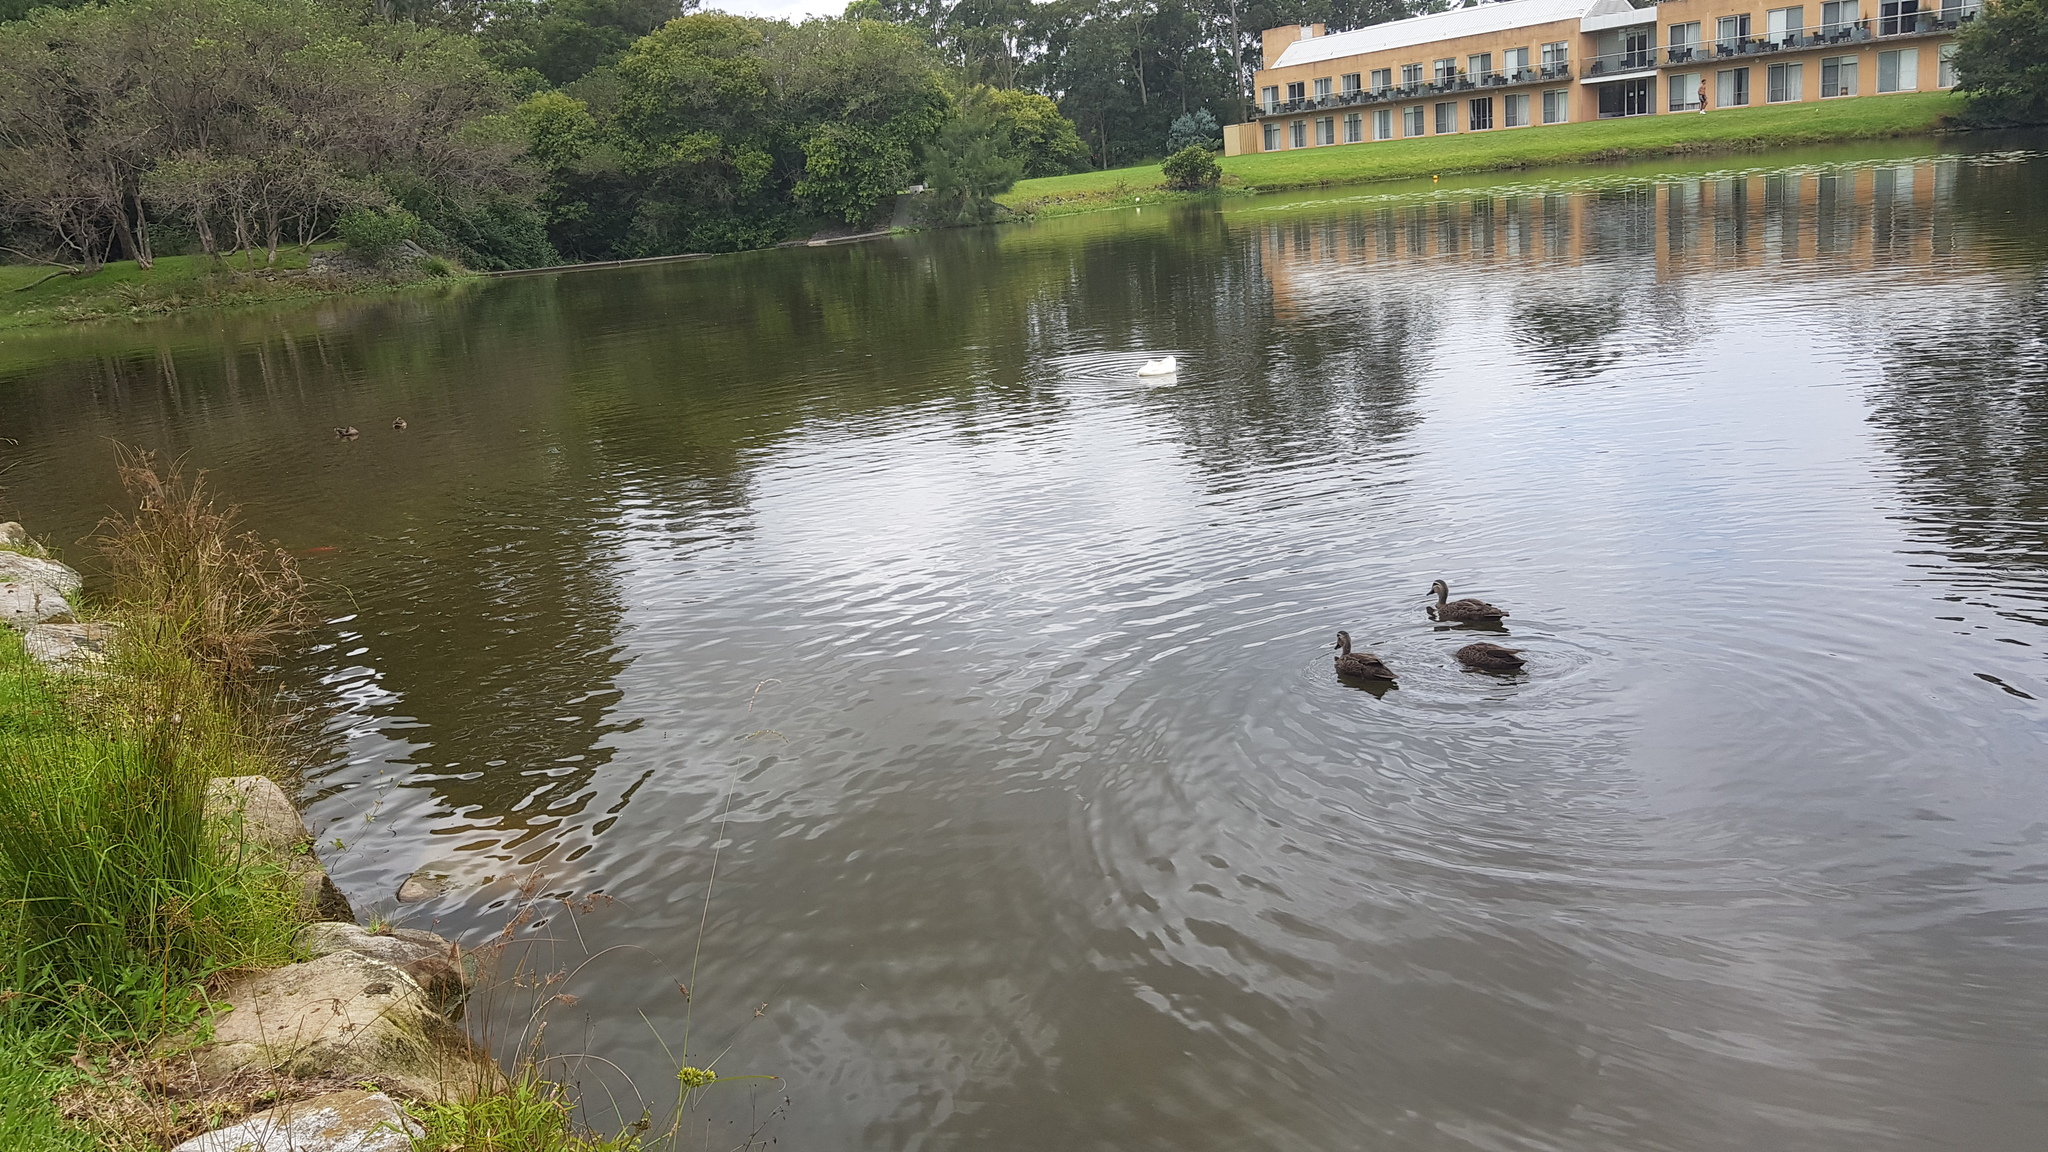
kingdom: Animalia
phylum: Chordata
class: Aves
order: Anseriformes
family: Anatidae
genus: Anas
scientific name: Anas superciliosa
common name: Pacific black duck
